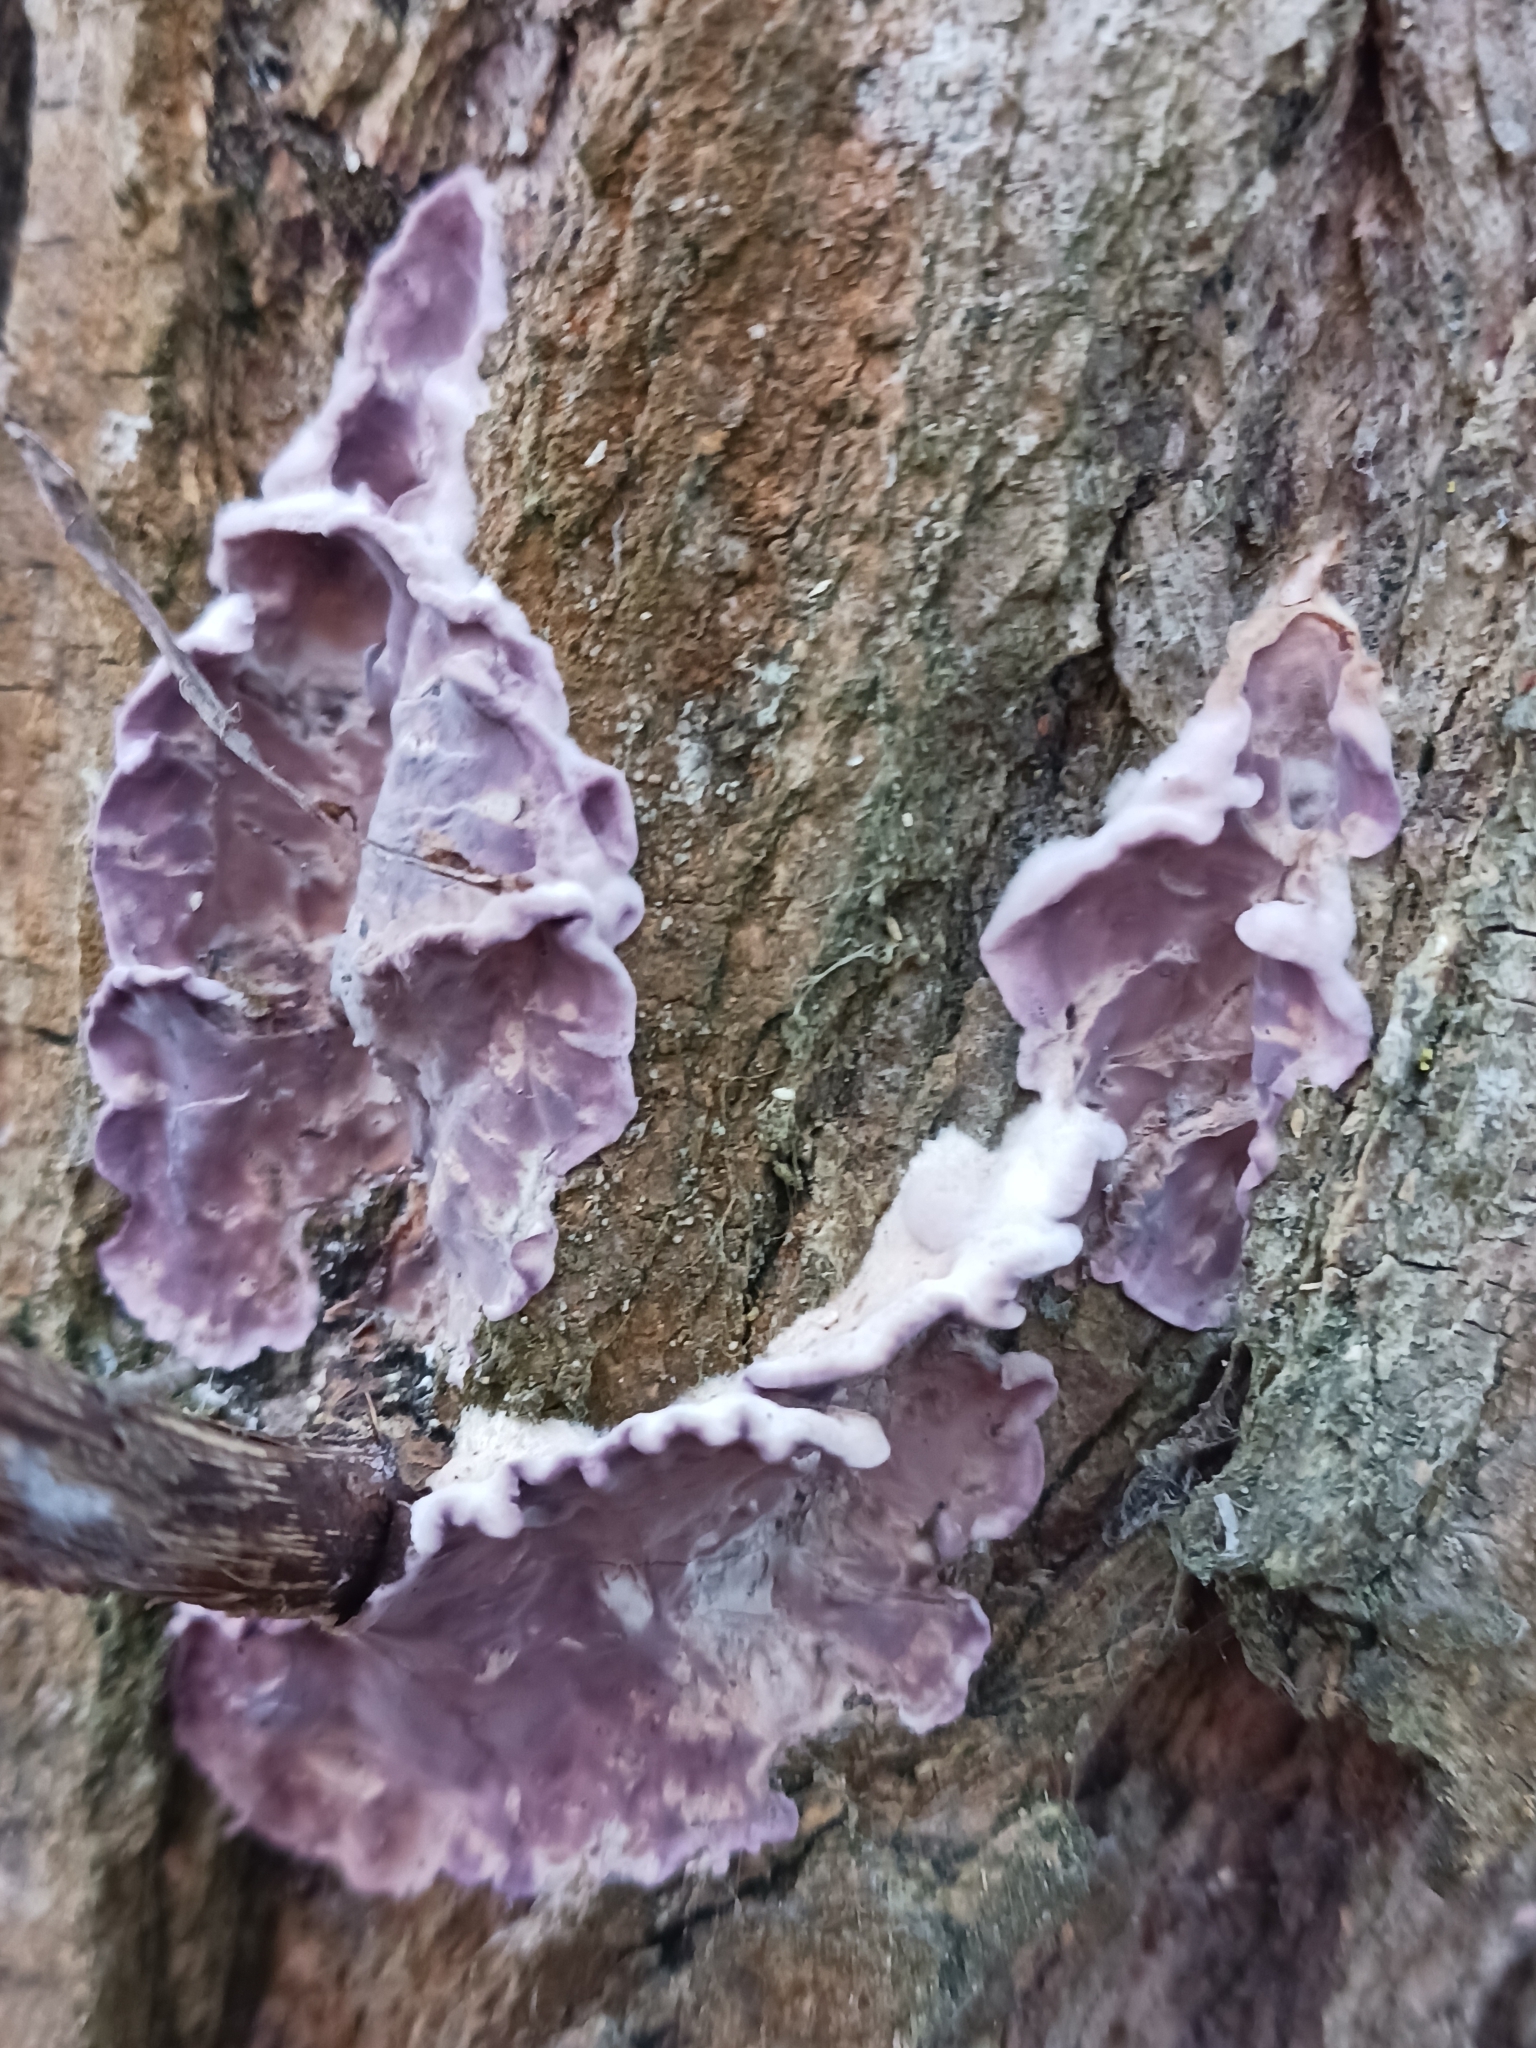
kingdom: Fungi
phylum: Basidiomycota
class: Agaricomycetes
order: Agaricales
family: Cyphellaceae
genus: Chondrostereum
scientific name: Chondrostereum purpureum
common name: Silver leaf disease
